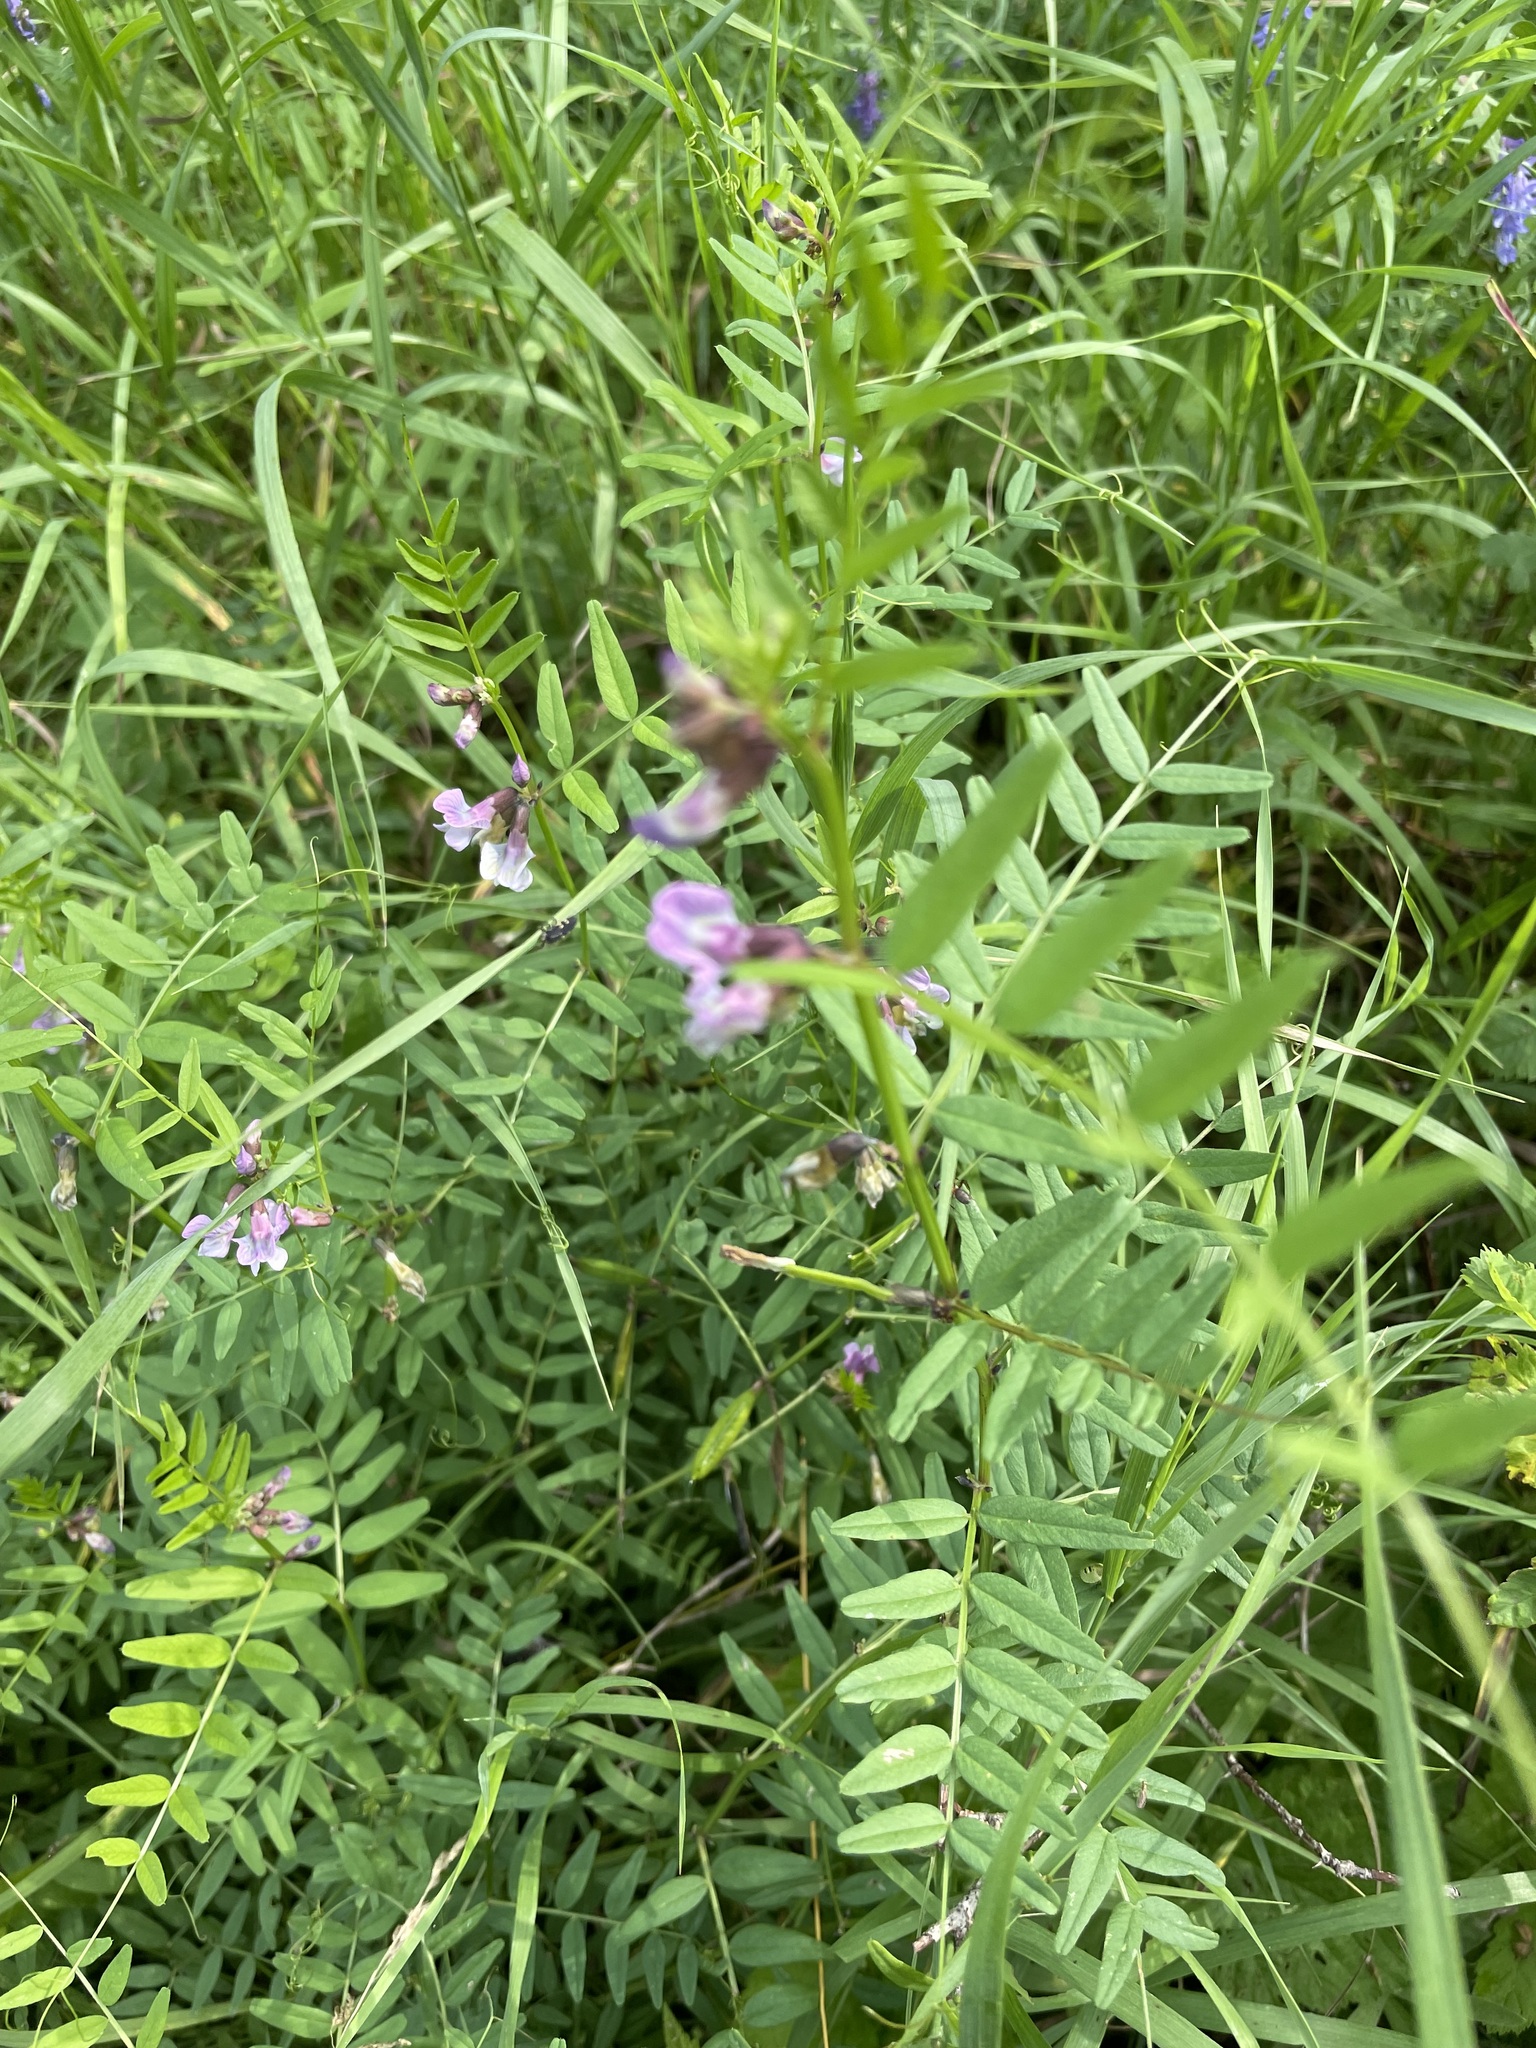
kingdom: Plantae
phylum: Tracheophyta
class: Magnoliopsida
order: Fabales
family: Fabaceae
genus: Vicia
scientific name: Vicia sepium
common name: Bush vetch
